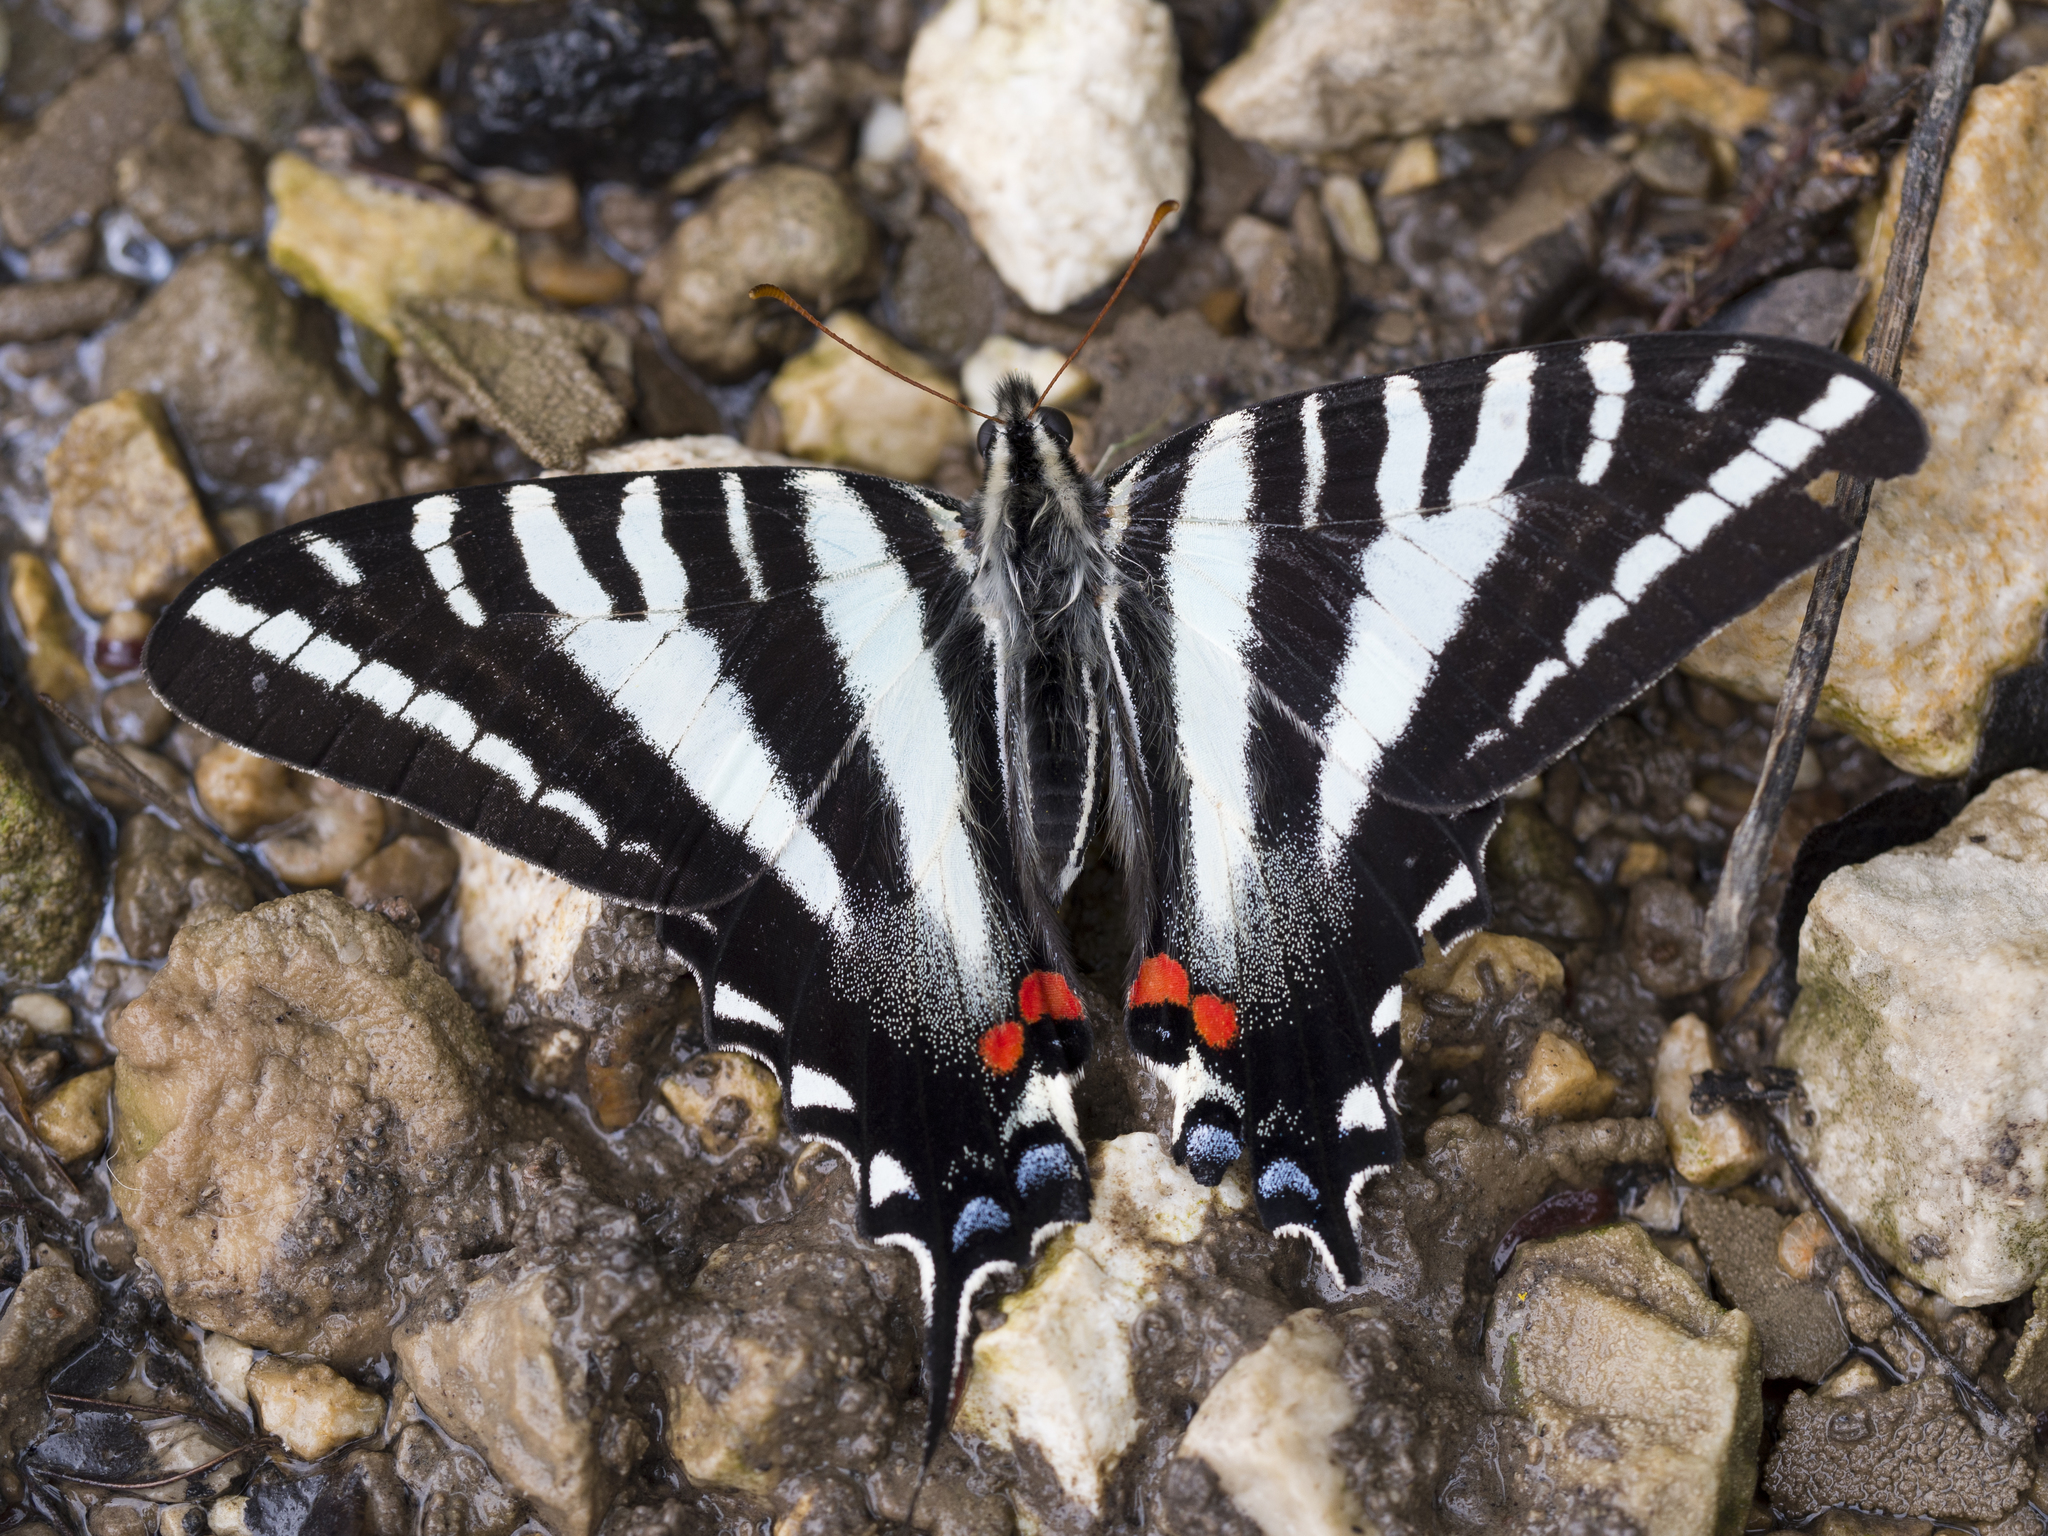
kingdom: Animalia
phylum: Arthropoda
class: Insecta
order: Lepidoptera
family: Papilionidae
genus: Protographium
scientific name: Protographium marcellus
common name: Zebra swallowtail
